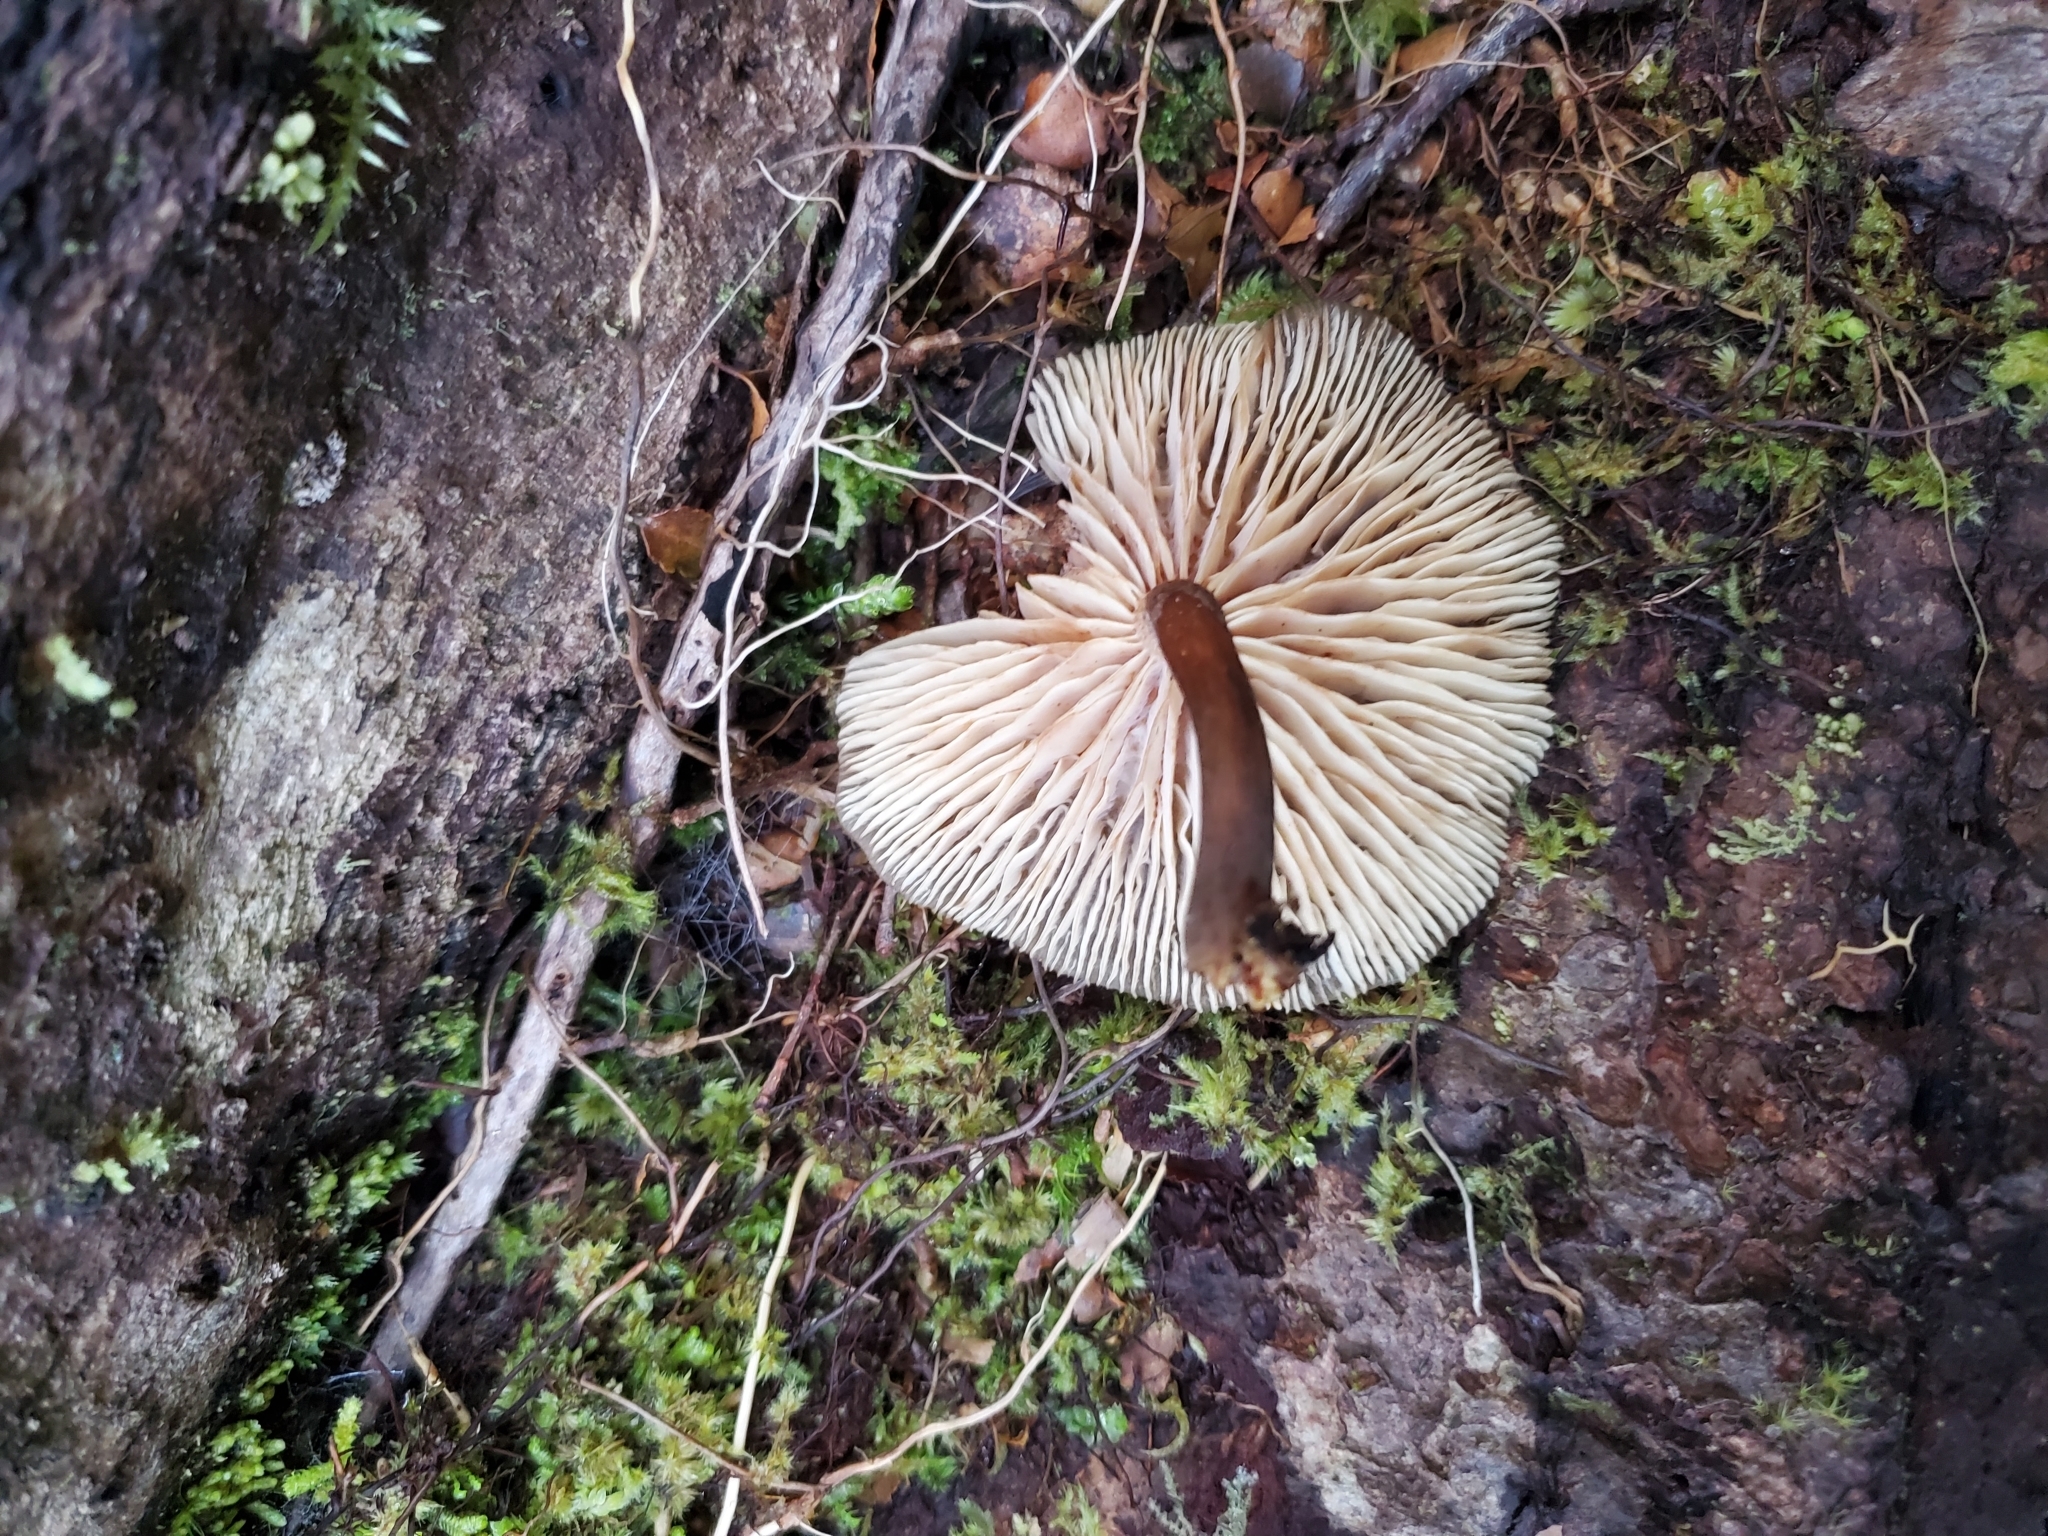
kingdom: Fungi
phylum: Basidiomycota
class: Agaricomycetes
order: Agaricales
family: Physalacriaceae
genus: Armillaria
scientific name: Armillaria novae-zelandiae
